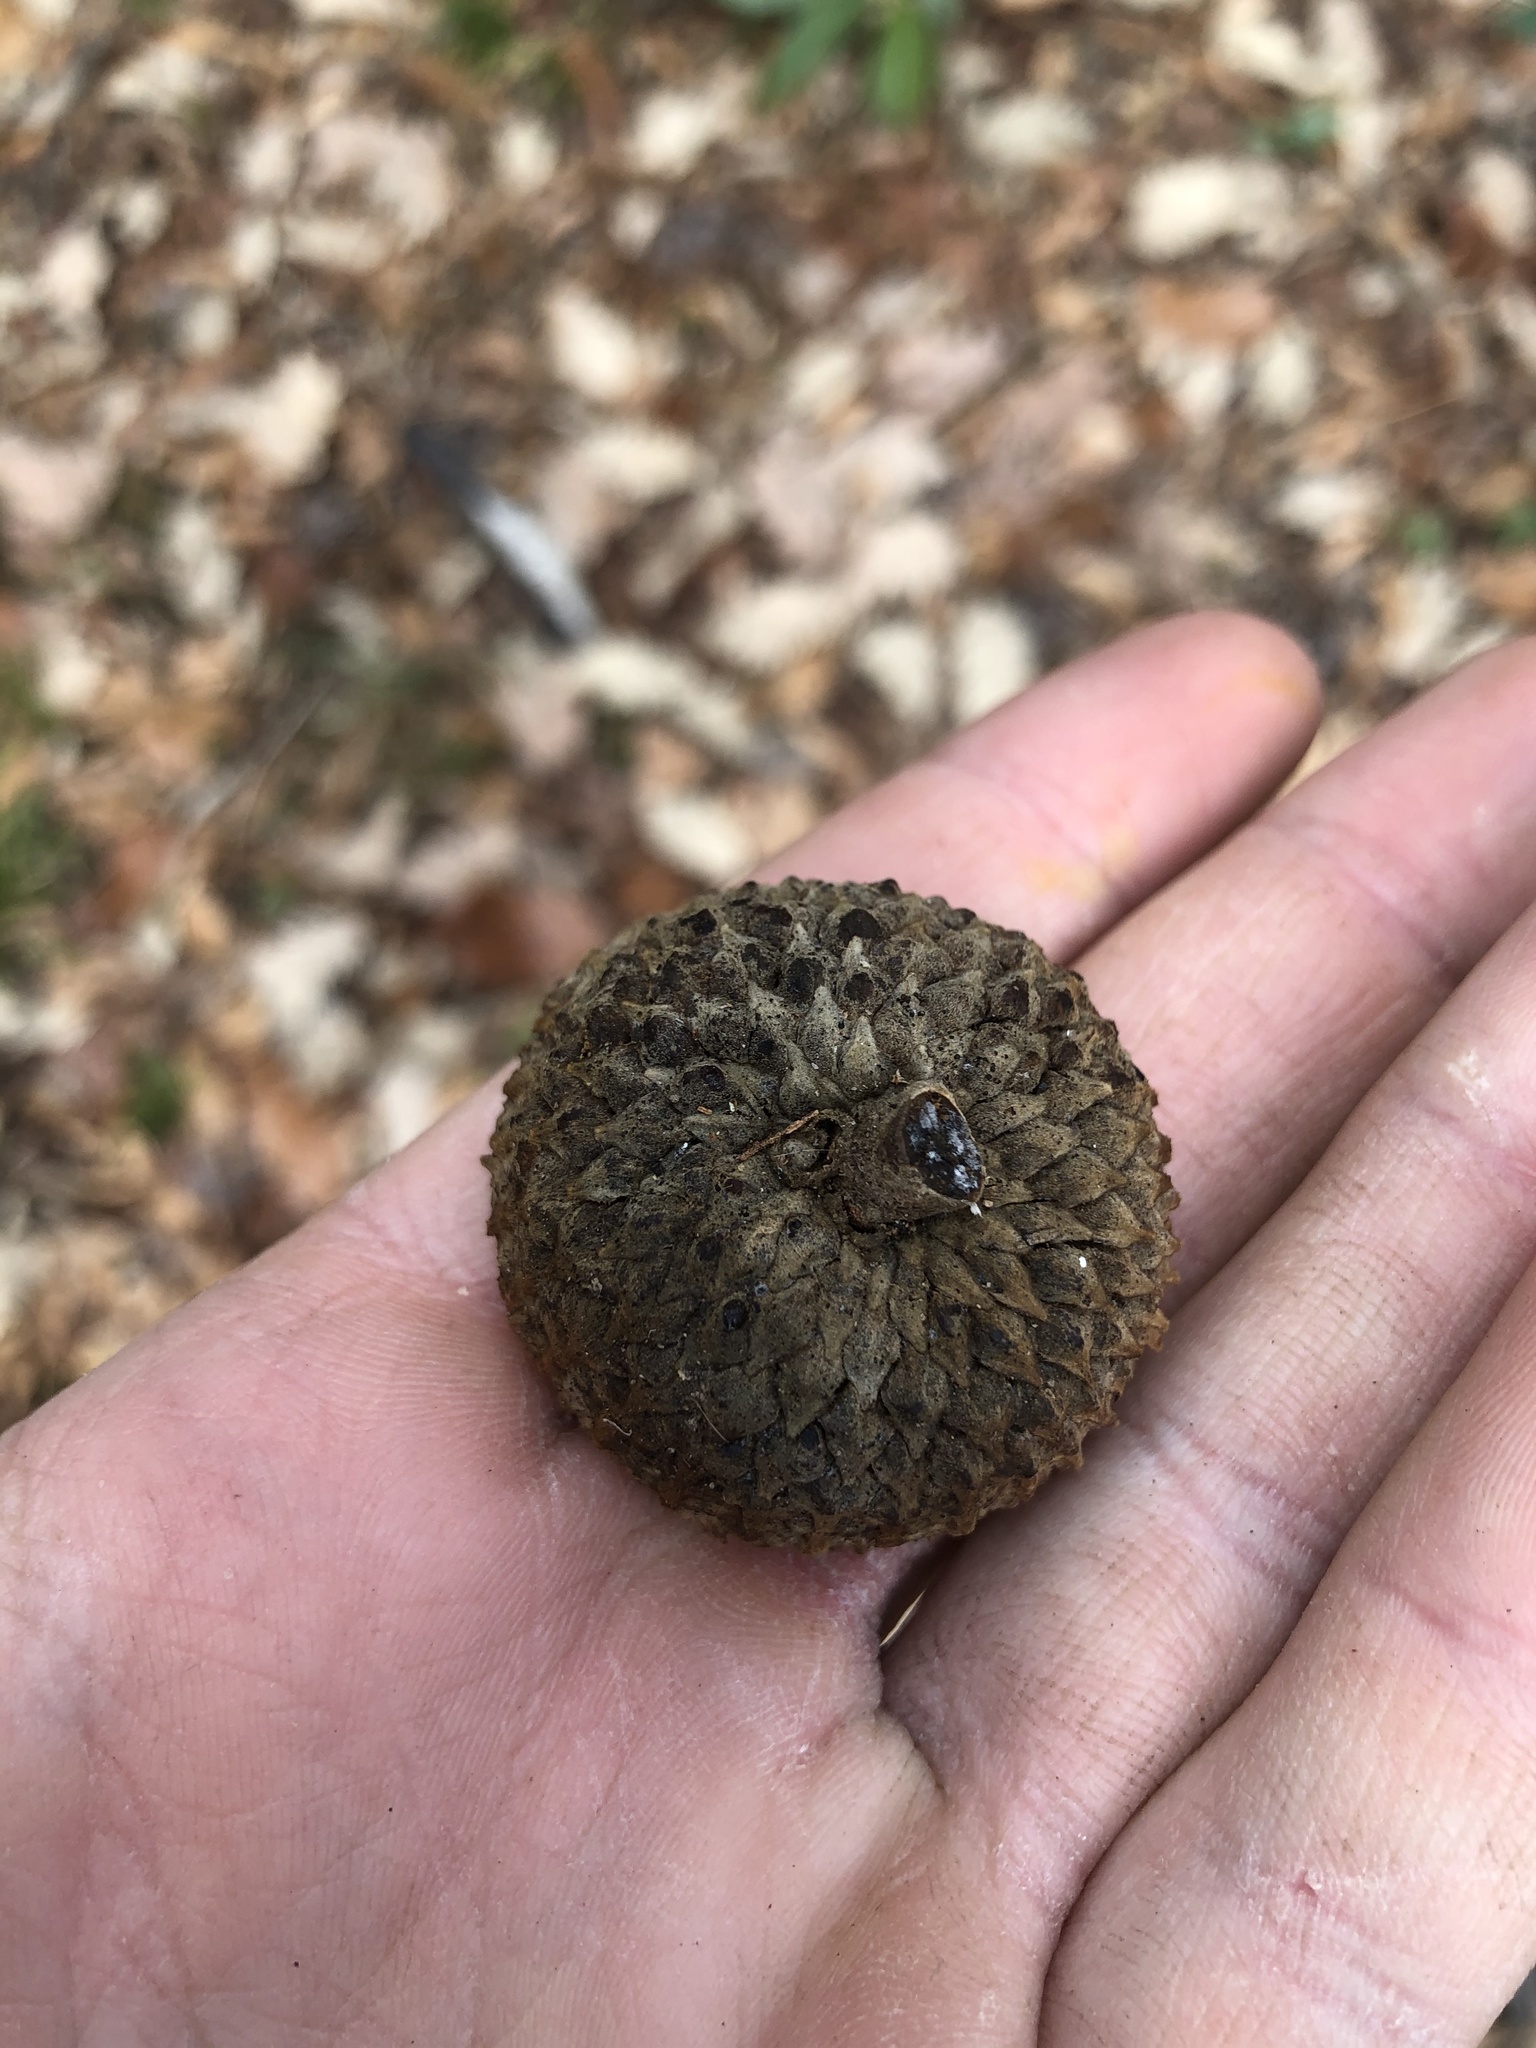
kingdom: Plantae
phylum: Tracheophyta
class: Magnoliopsida
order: Fagales
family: Fagaceae
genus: Quercus
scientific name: Quercus michauxii
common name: Swamp chestnut oak
